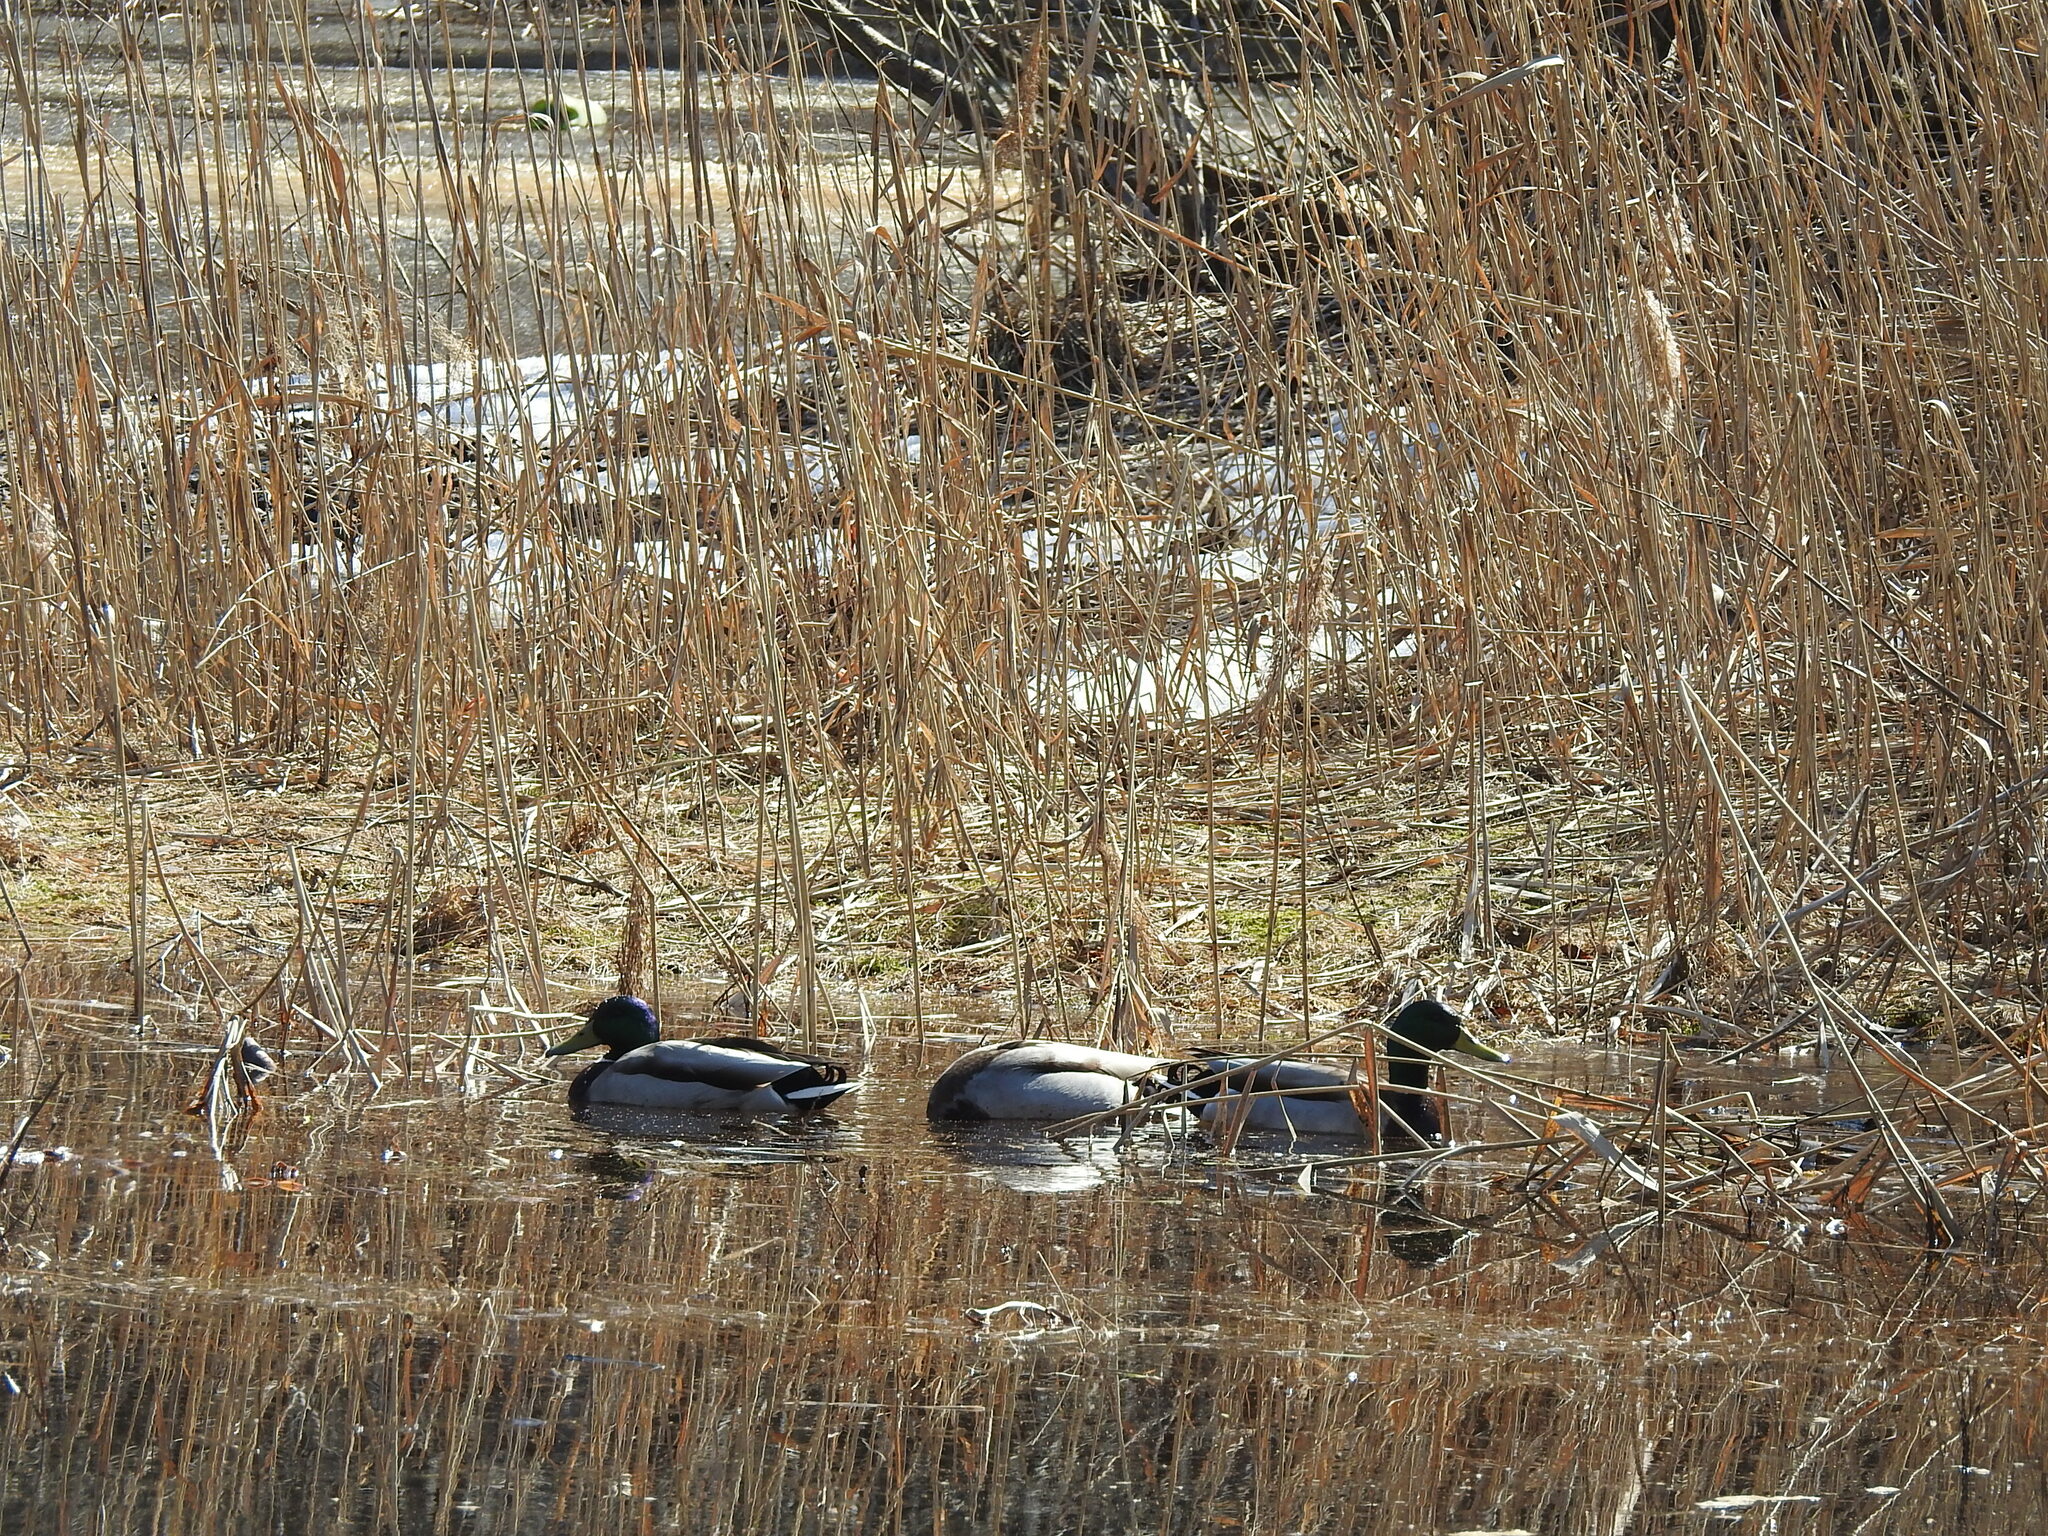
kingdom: Animalia
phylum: Chordata
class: Aves
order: Anseriformes
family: Anatidae
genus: Anas
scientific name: Anas platyrhynchos
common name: Mallard
